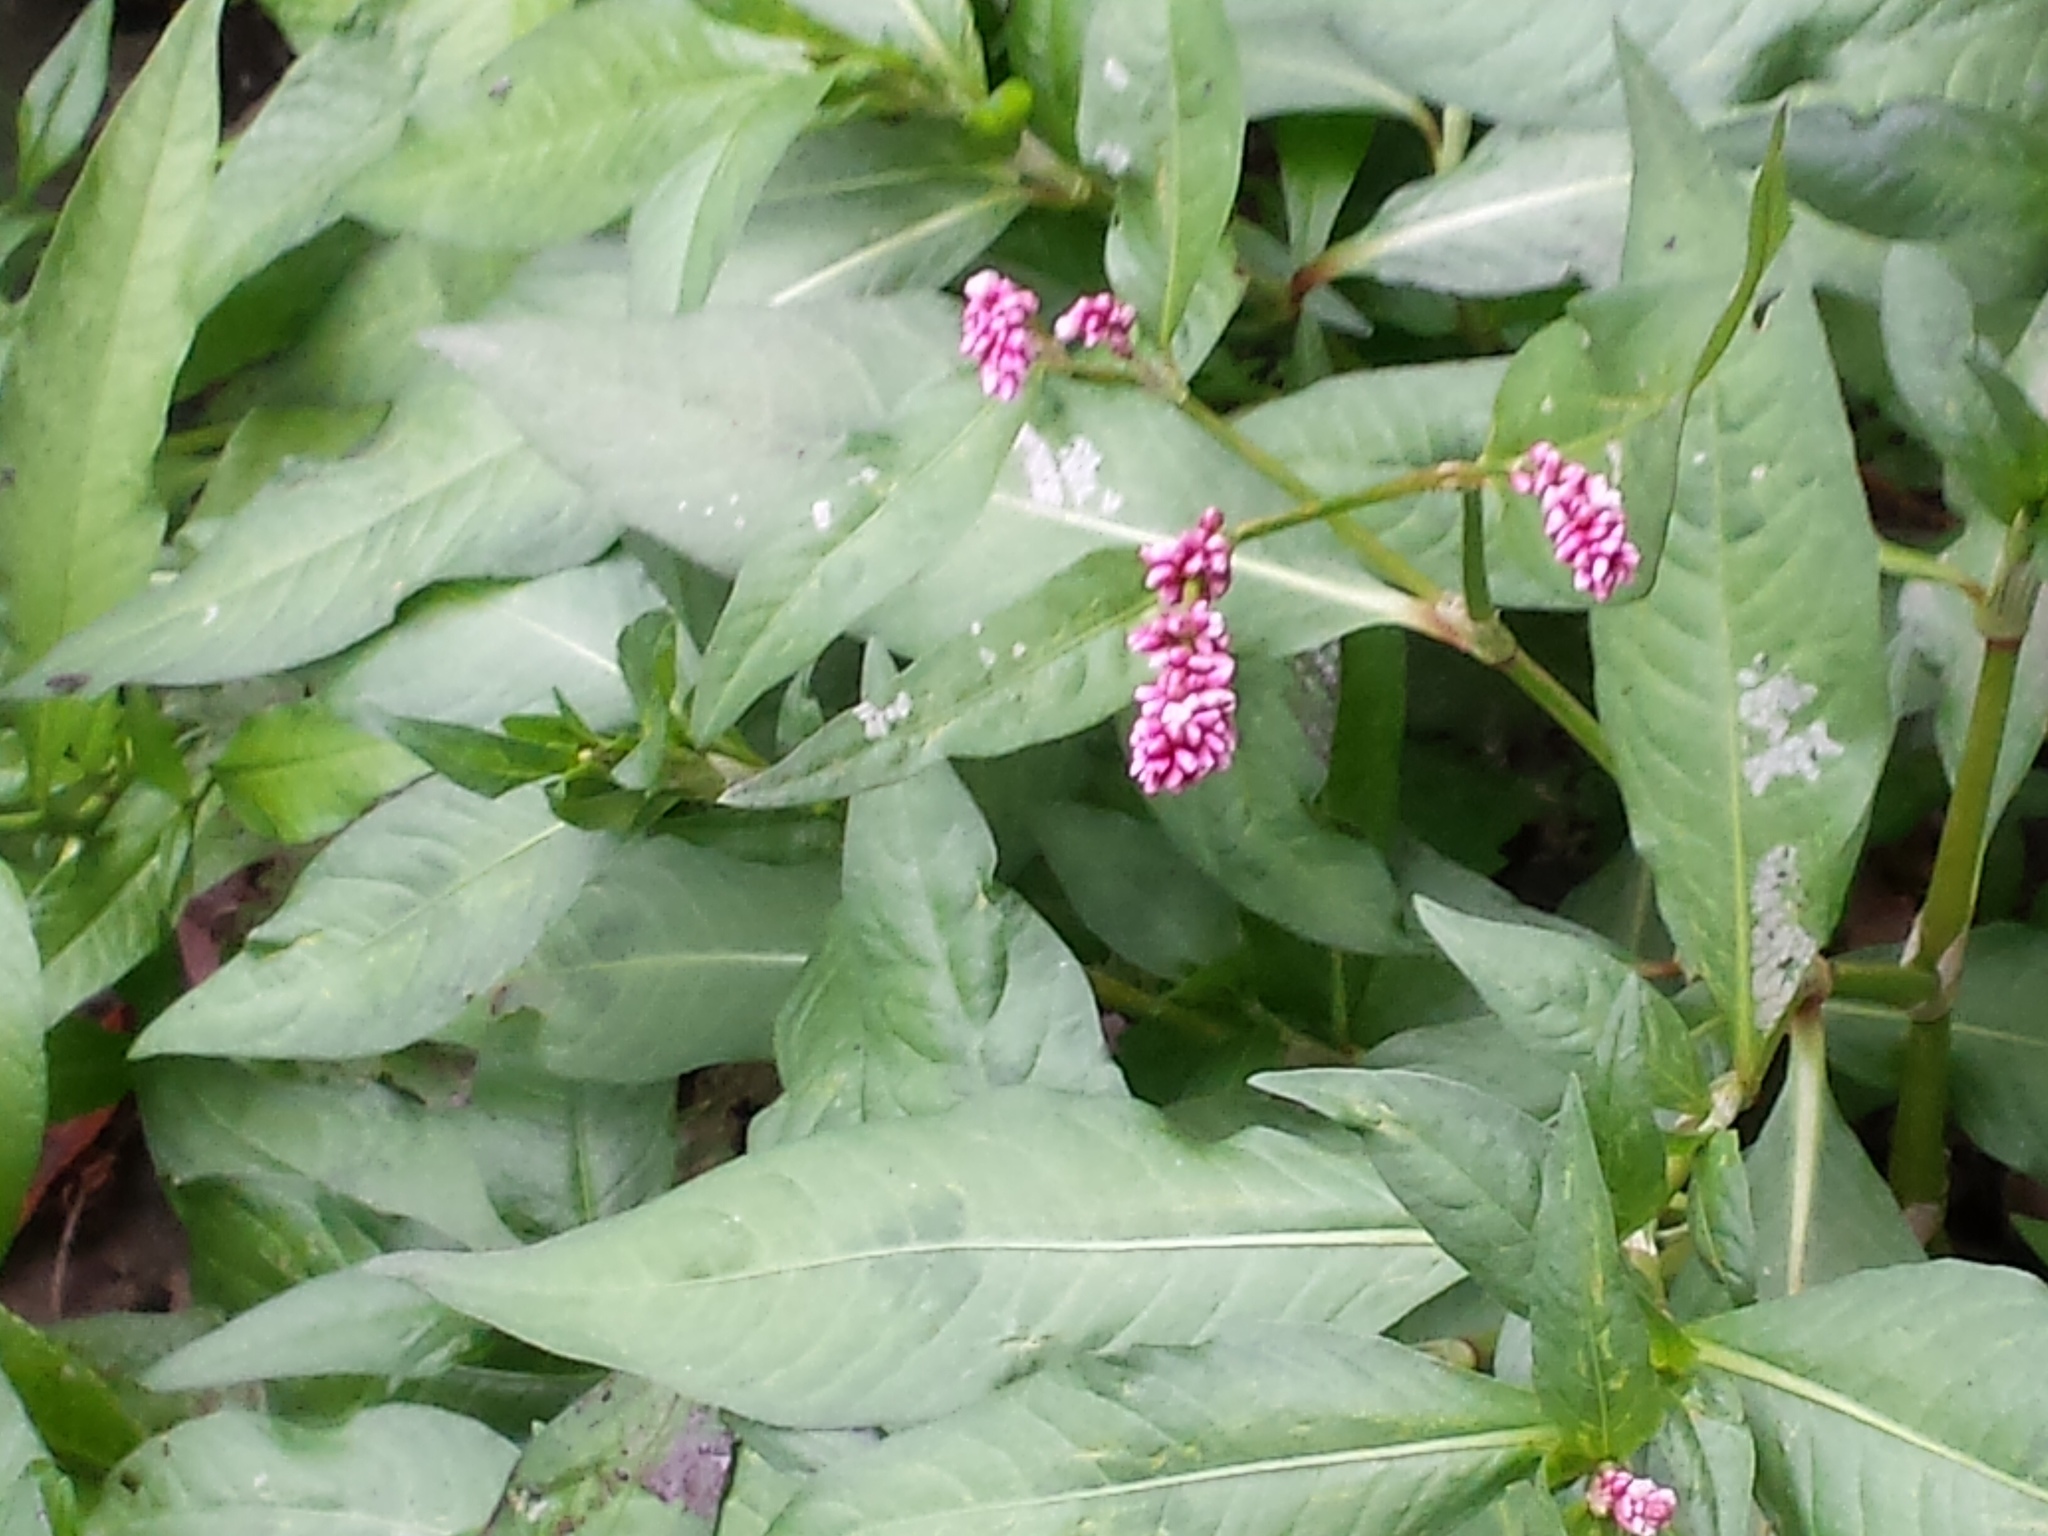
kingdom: Plantae
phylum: Tracheophyta
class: Magnoliopsida
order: Caryophyllales
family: Polygonaceae
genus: Persicaria
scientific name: Persicaria maculosa
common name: Redshank
